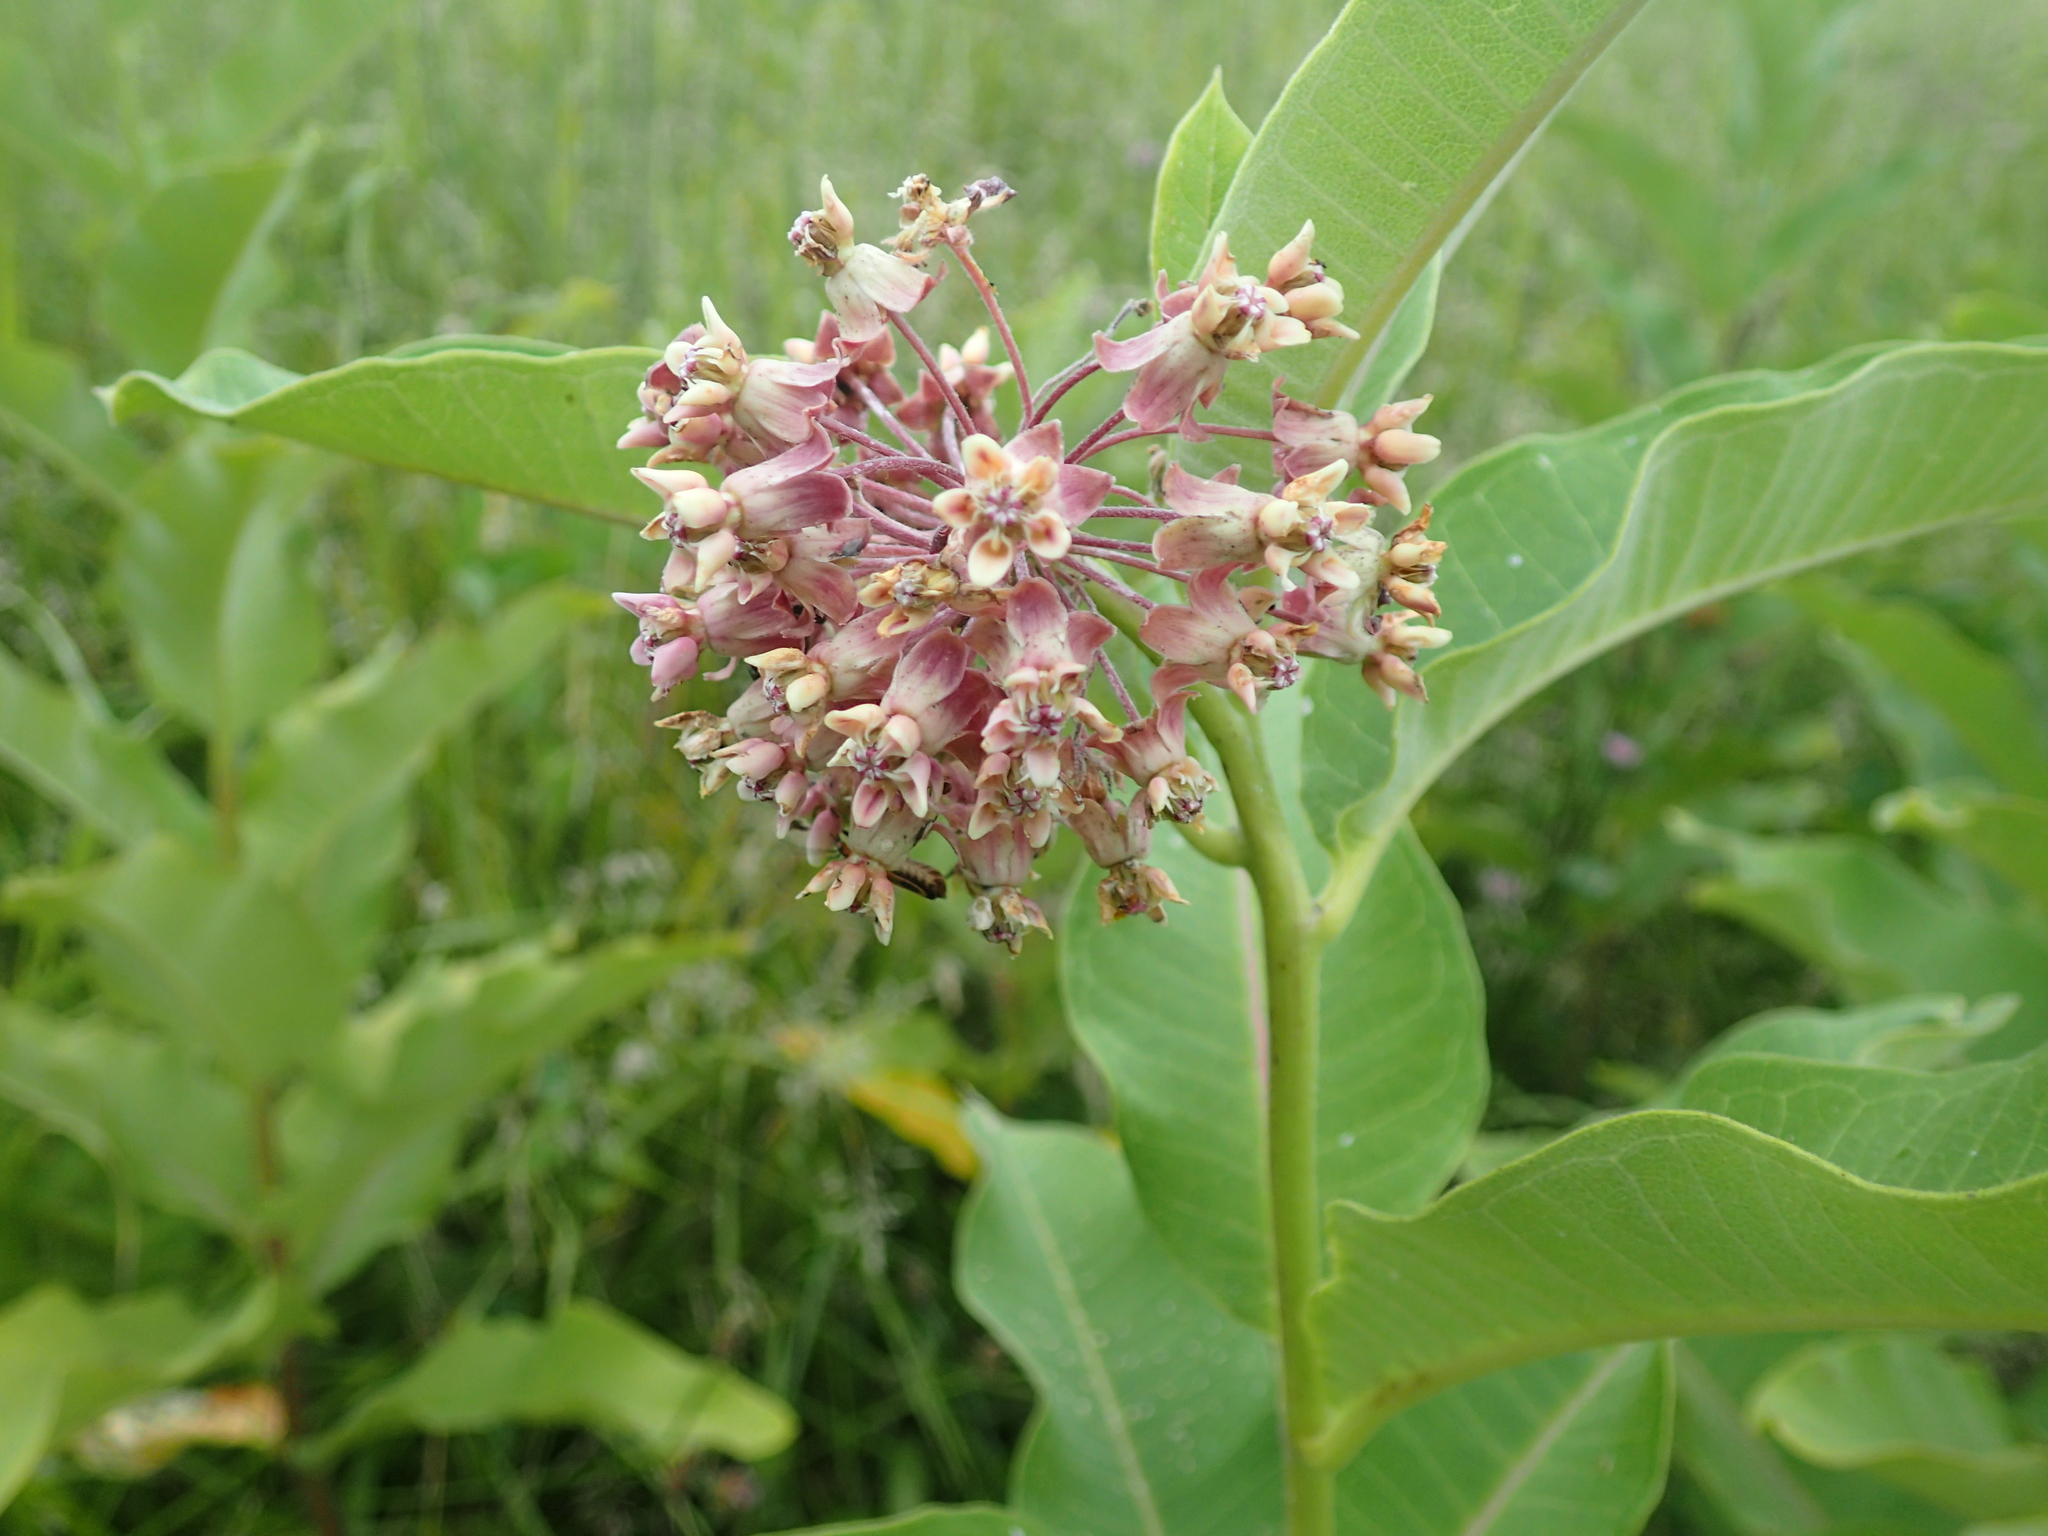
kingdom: Plantae
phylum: Tracheophyta
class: Magnoliopsida
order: Gentianales
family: Apocynaceae
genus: Asclepias
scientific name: Asclepias syriaca
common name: Common milkweed
